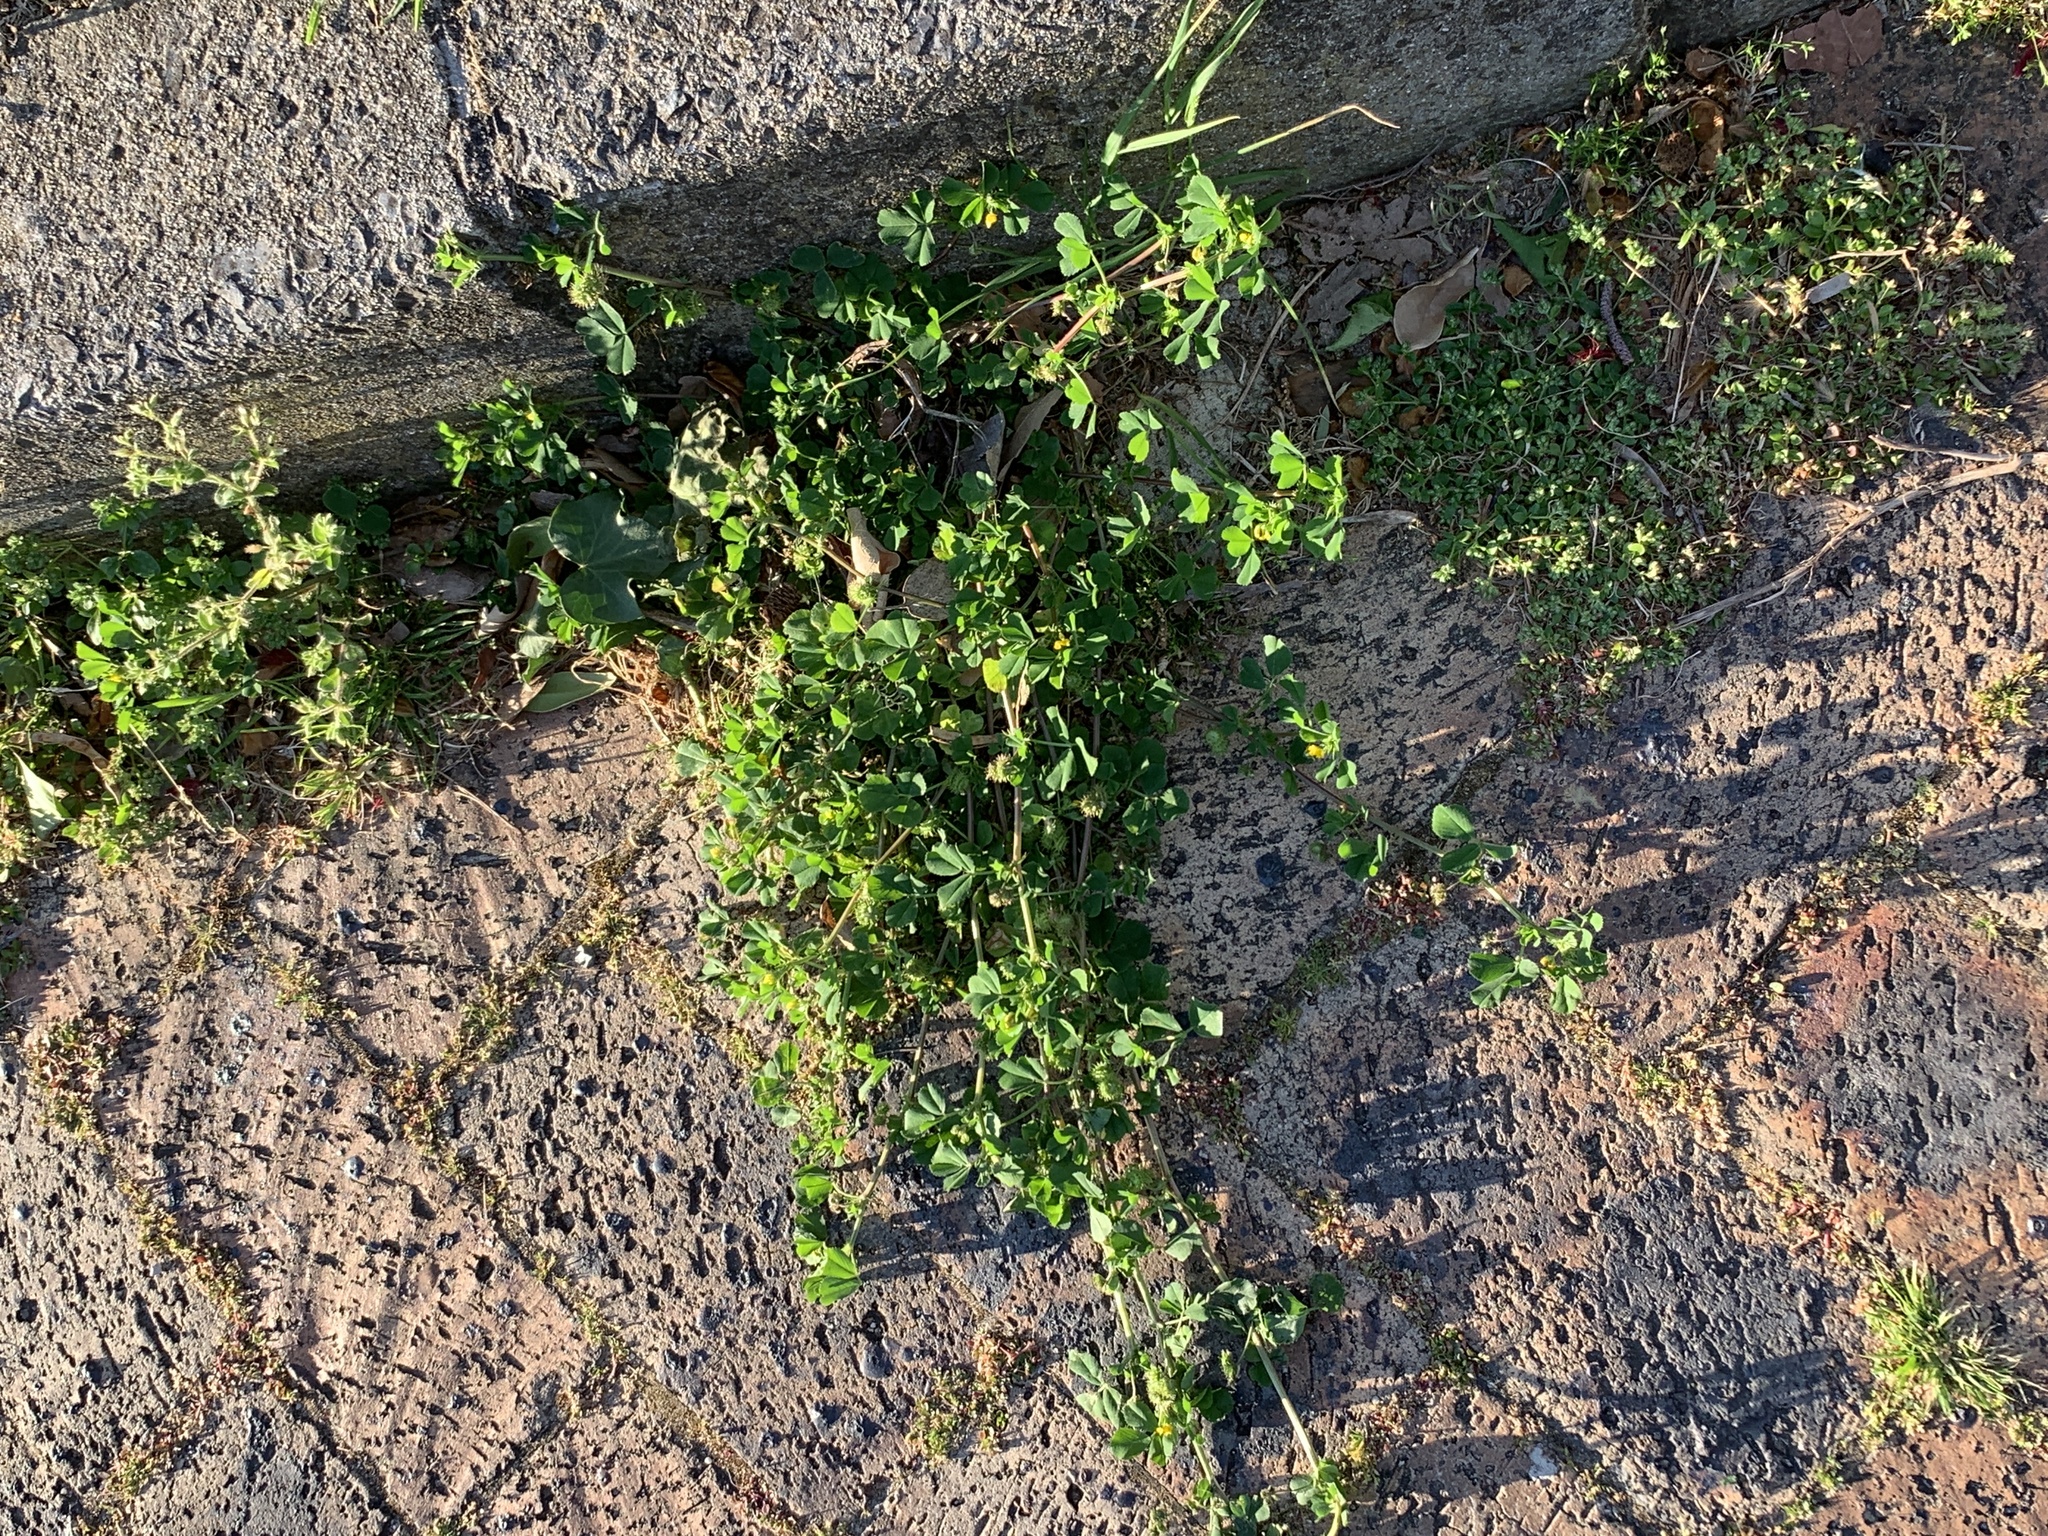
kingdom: Plantae
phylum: Tracheophyta
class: Magnoliopsida
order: Fabales
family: Fabaceae
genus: Medicago
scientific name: Medicago polymorpha
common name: Burclover
